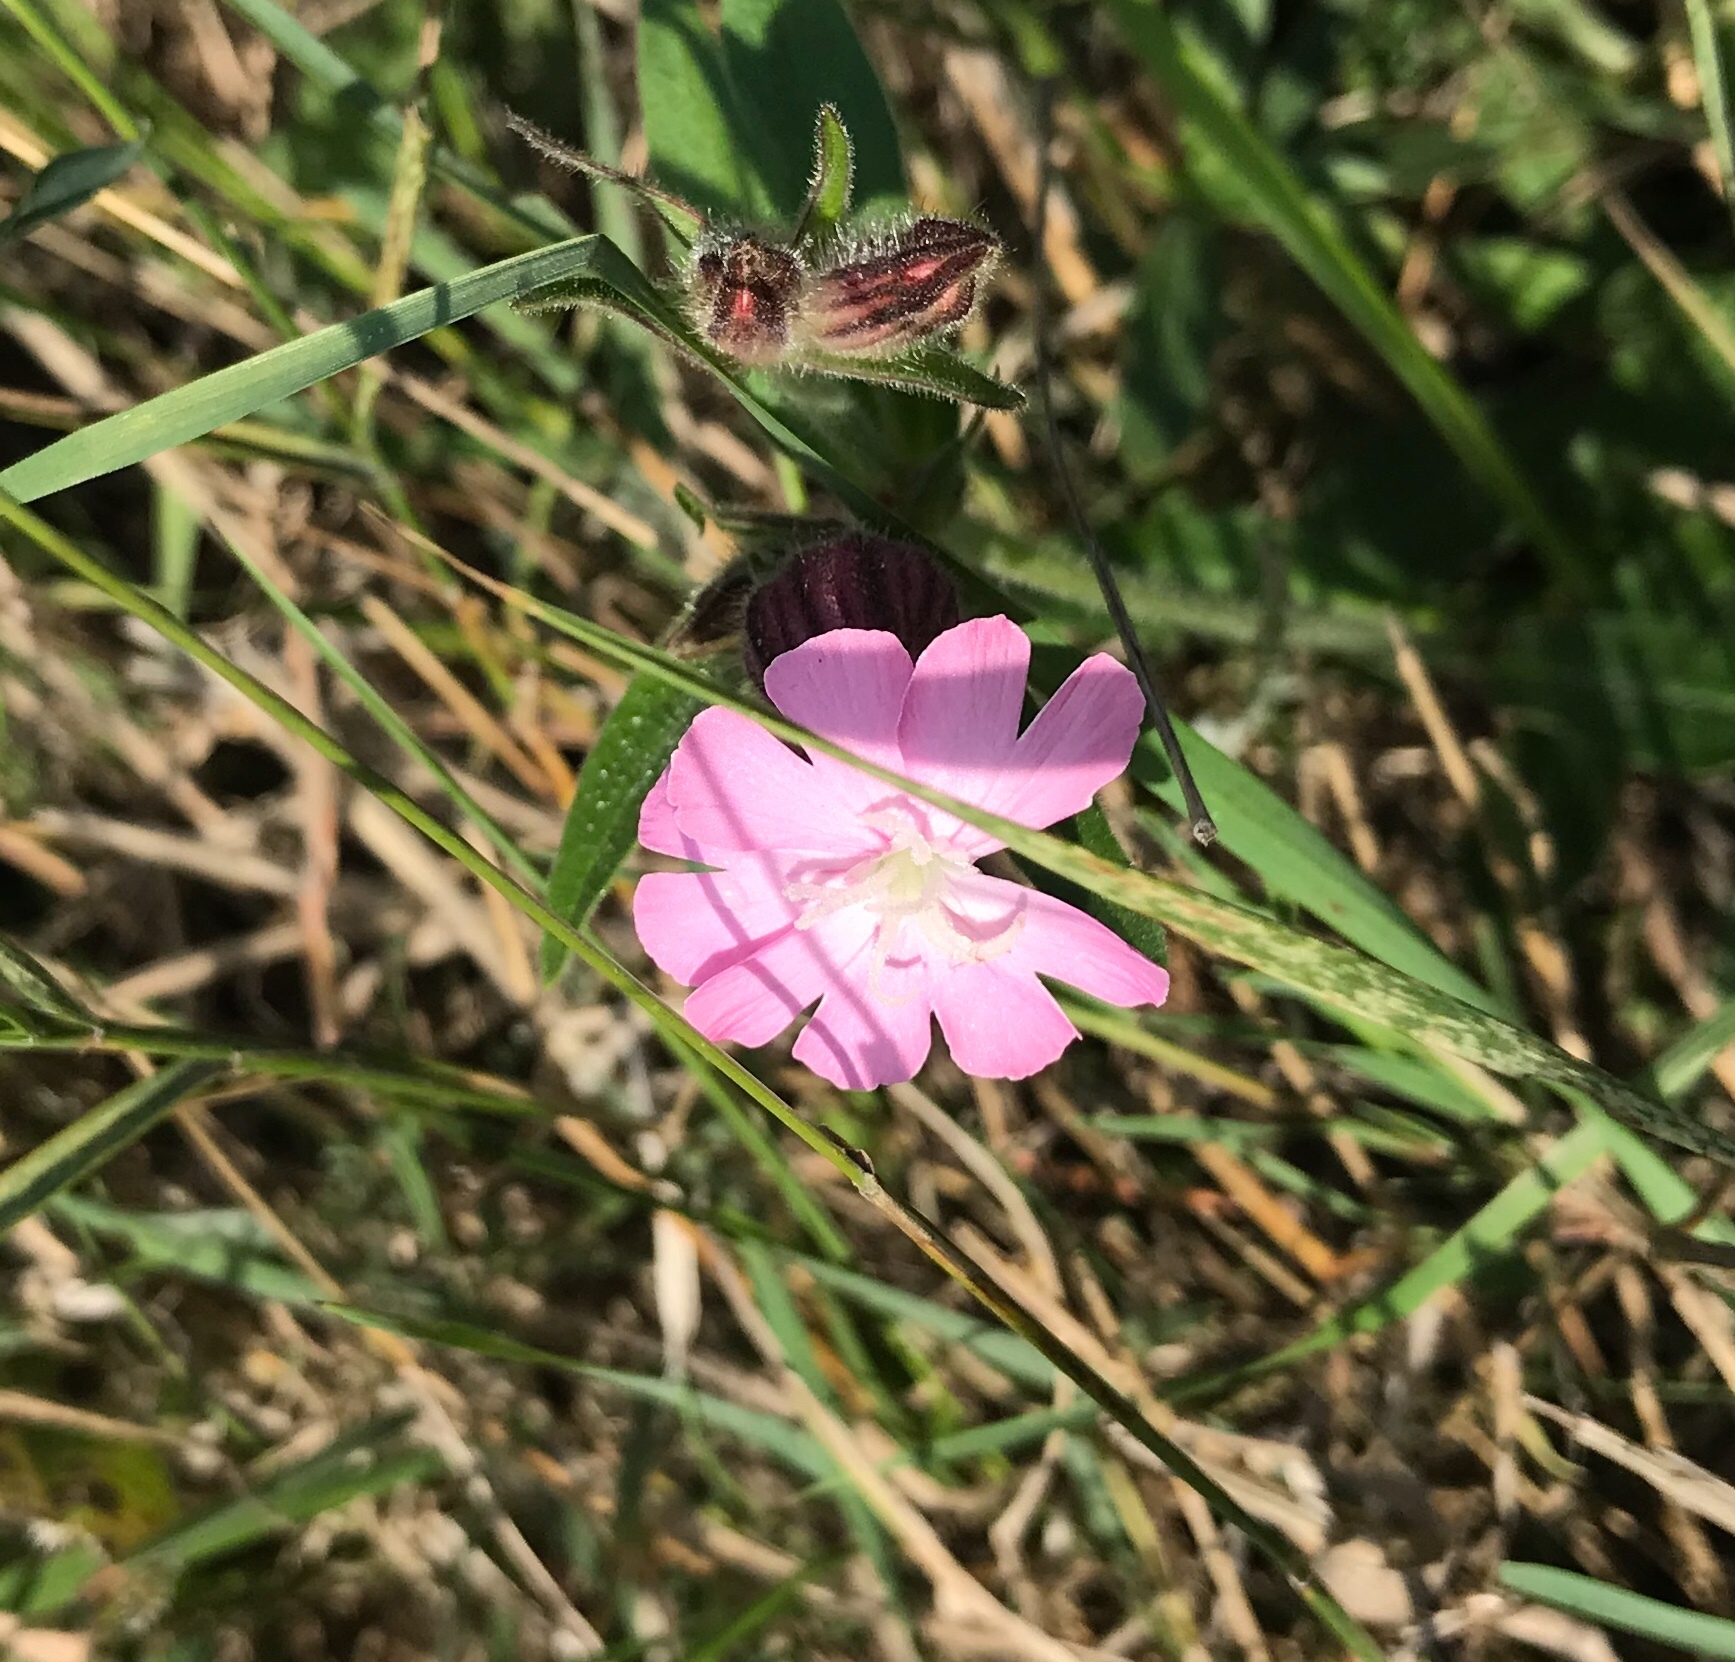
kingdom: Plantae
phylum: Tracheophyta
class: Magnoliopsida
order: Caryophyllales
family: Caryophyllaceae
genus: Silene
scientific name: Silene dioica
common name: Red campion
